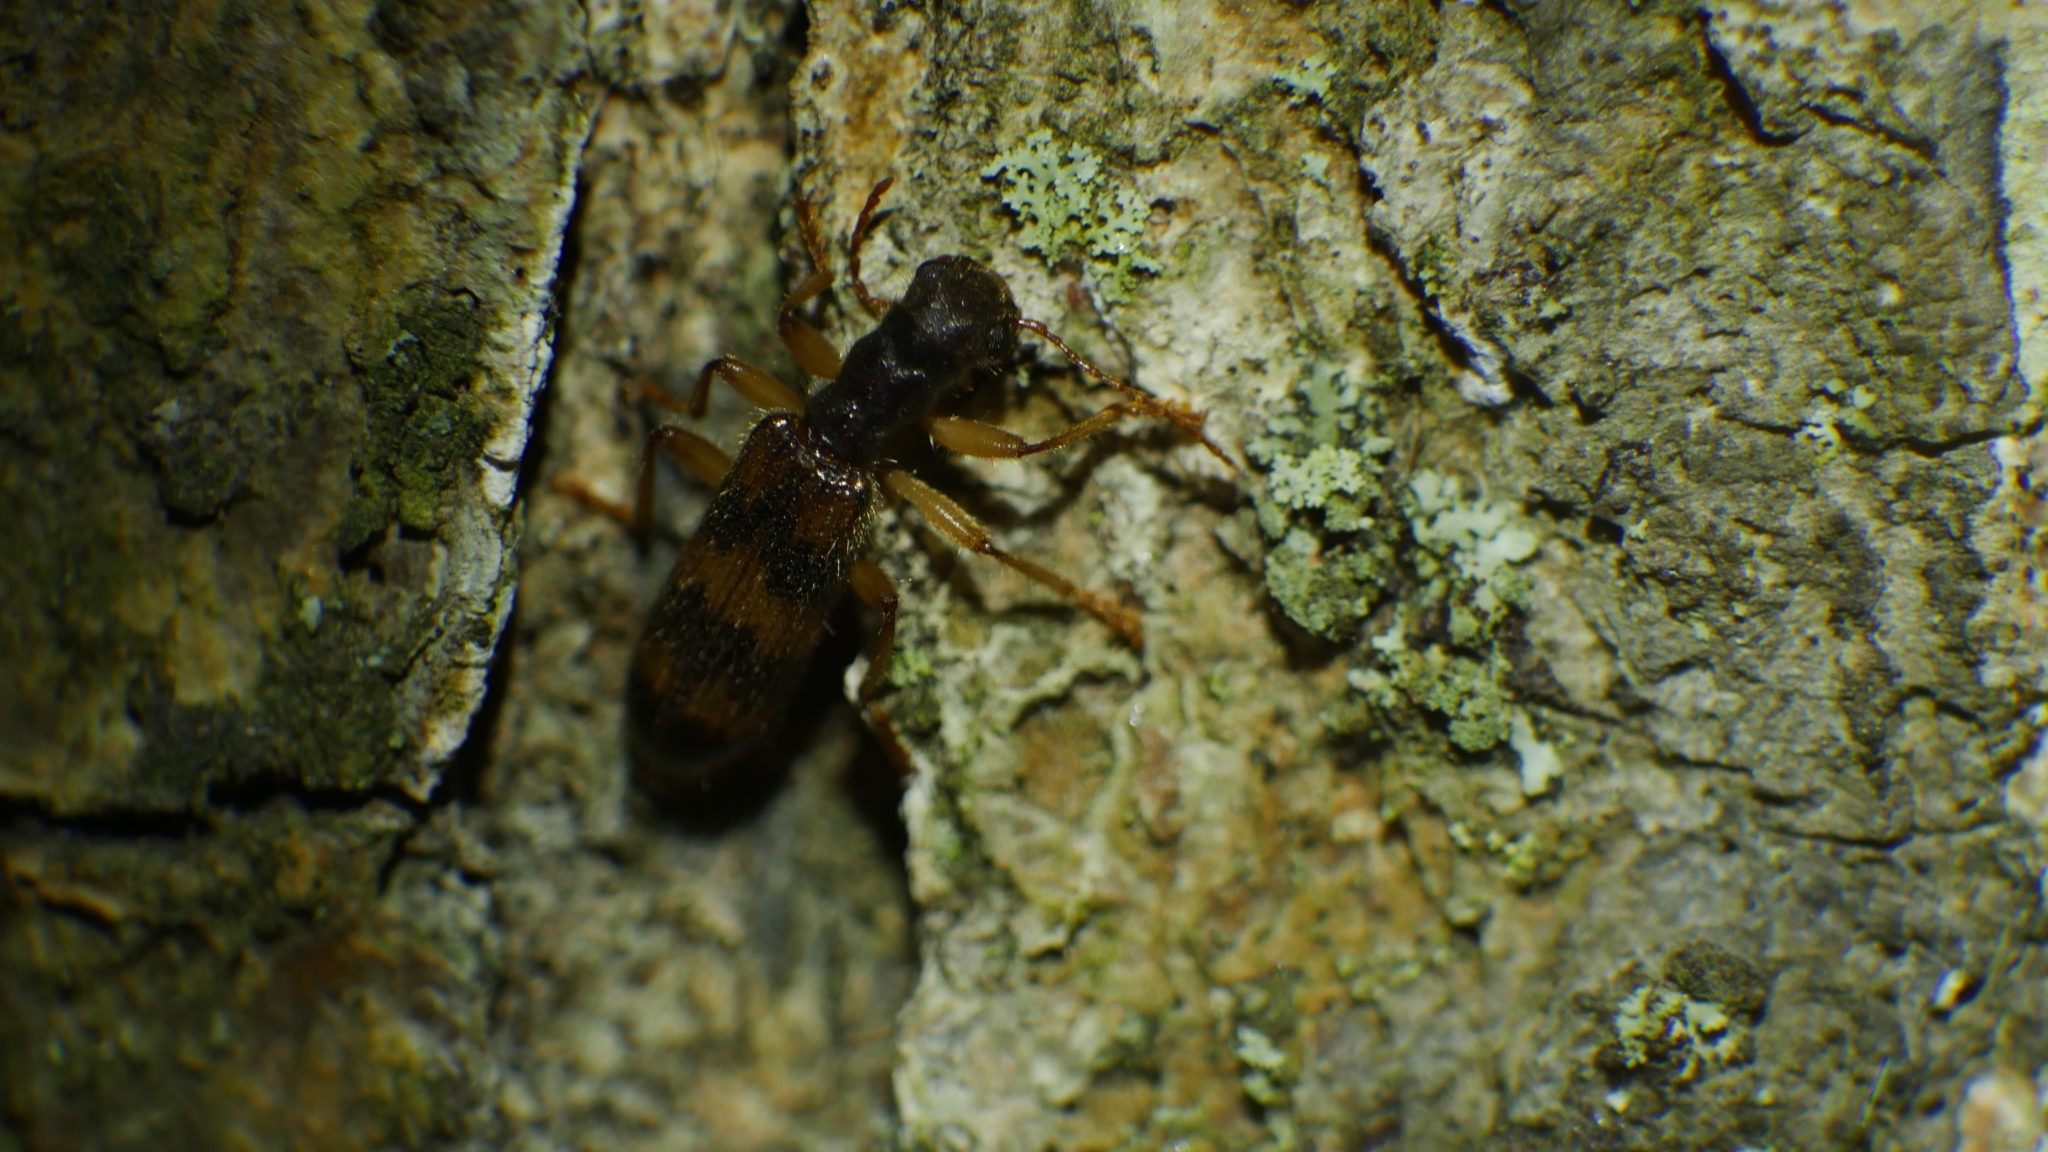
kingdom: Animalia
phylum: Arthropoda
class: Insecta
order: Coleoptera
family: Cleridae
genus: Cymatodera
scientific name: Cymatodera undulata
